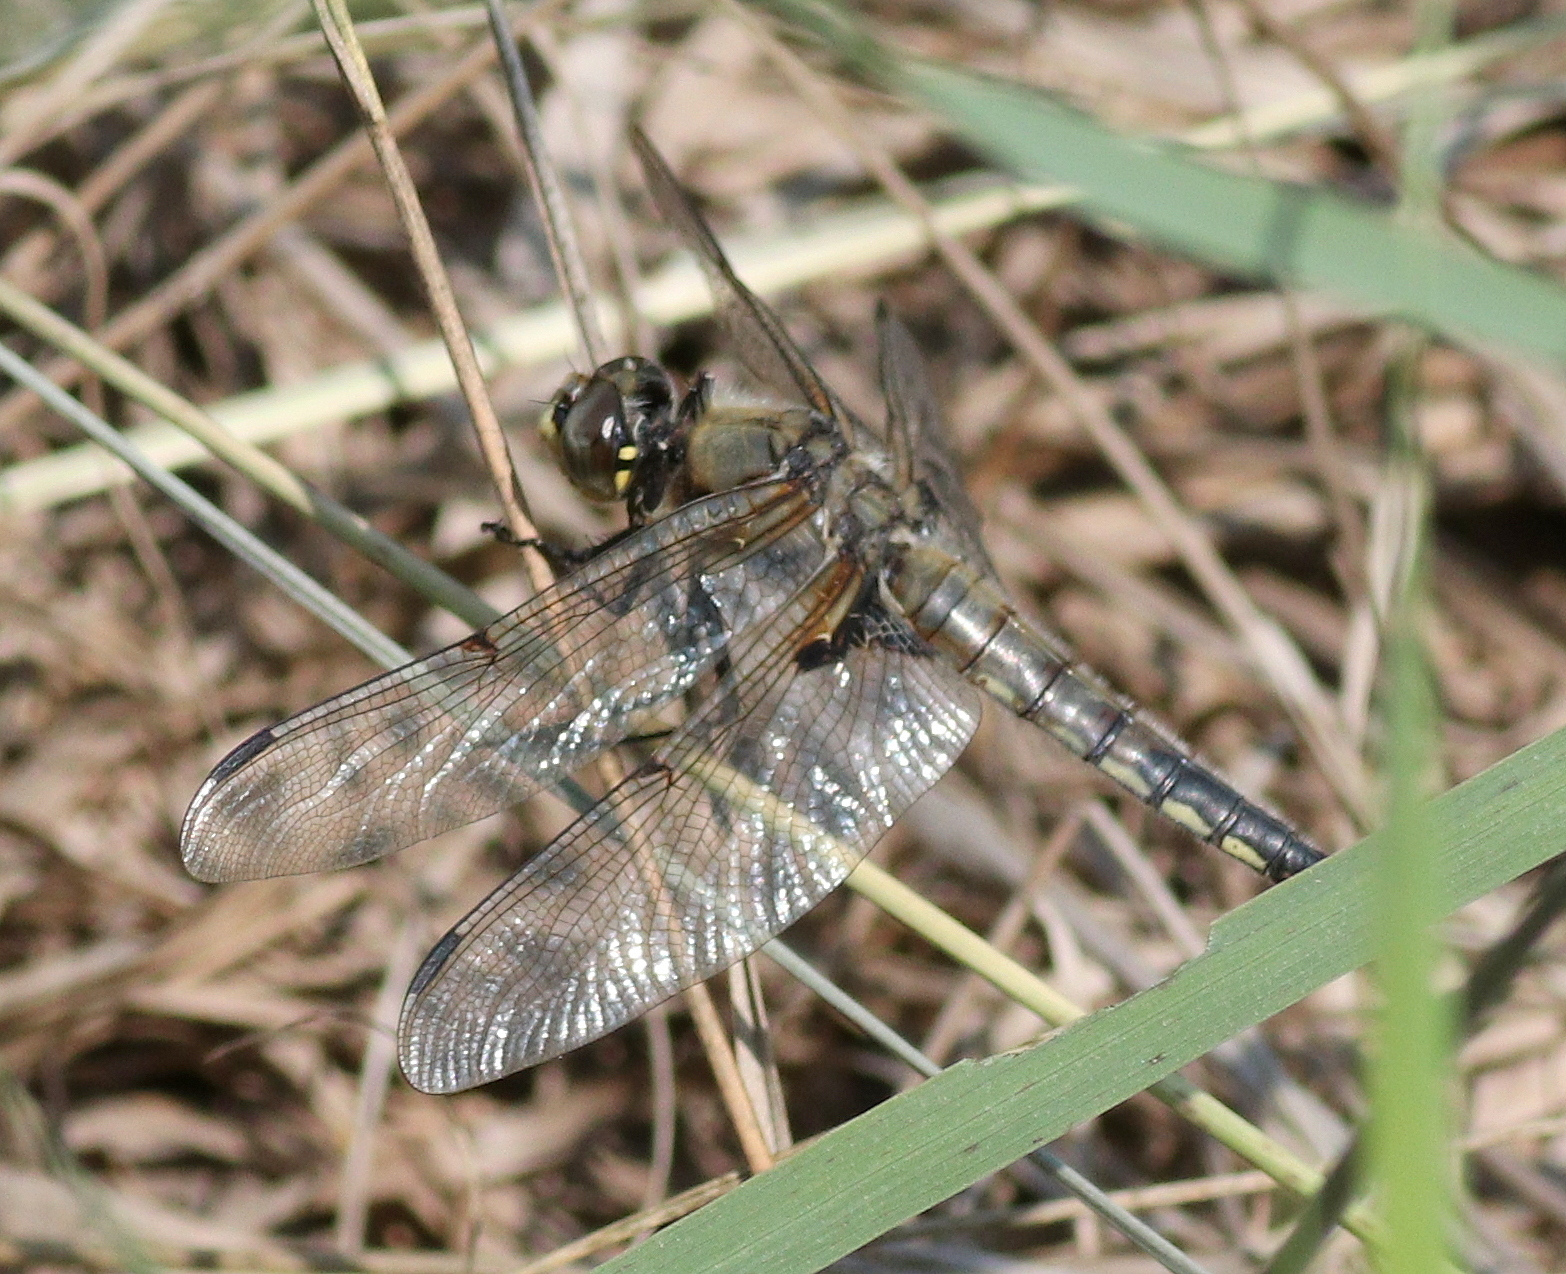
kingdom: Animalia
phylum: Arthropoda
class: Insecta
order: Odonata
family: Libellulidae
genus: Libellula
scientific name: Libellula quadrimaculata
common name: Four-spotted chaser
